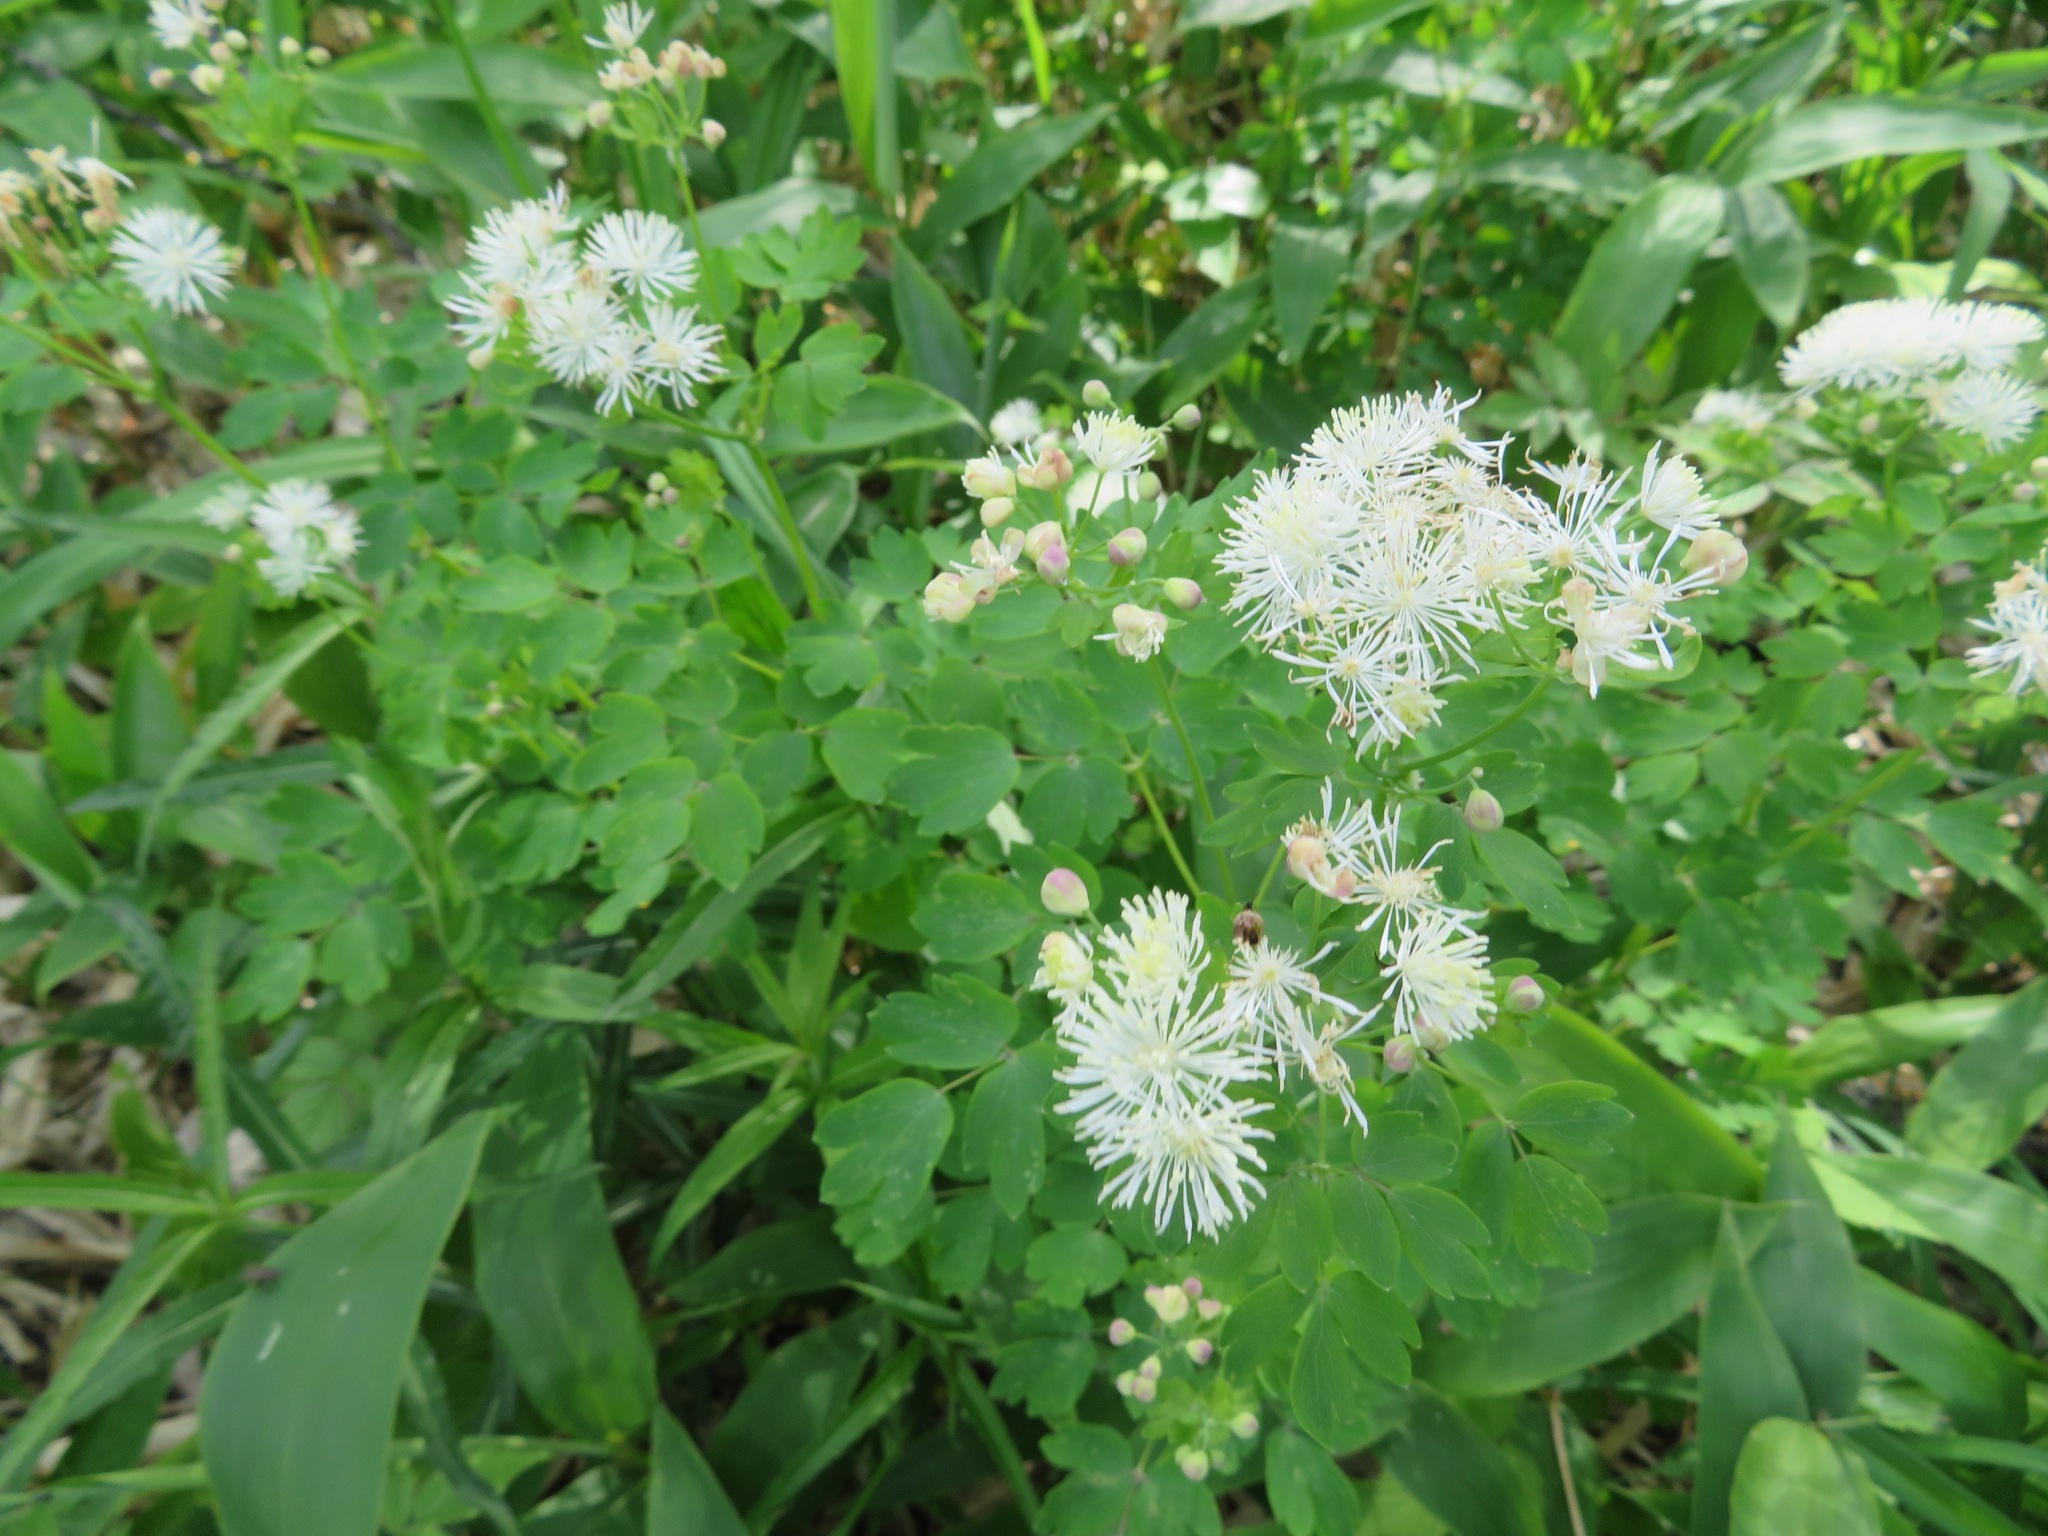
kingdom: Plantae
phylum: Tracheophyta
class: Magnoliopsida
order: Ranunculales
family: Ranunculaceae
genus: Thalictrum
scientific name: Thalictrum aquilegiifolium
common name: French meadow-rue
